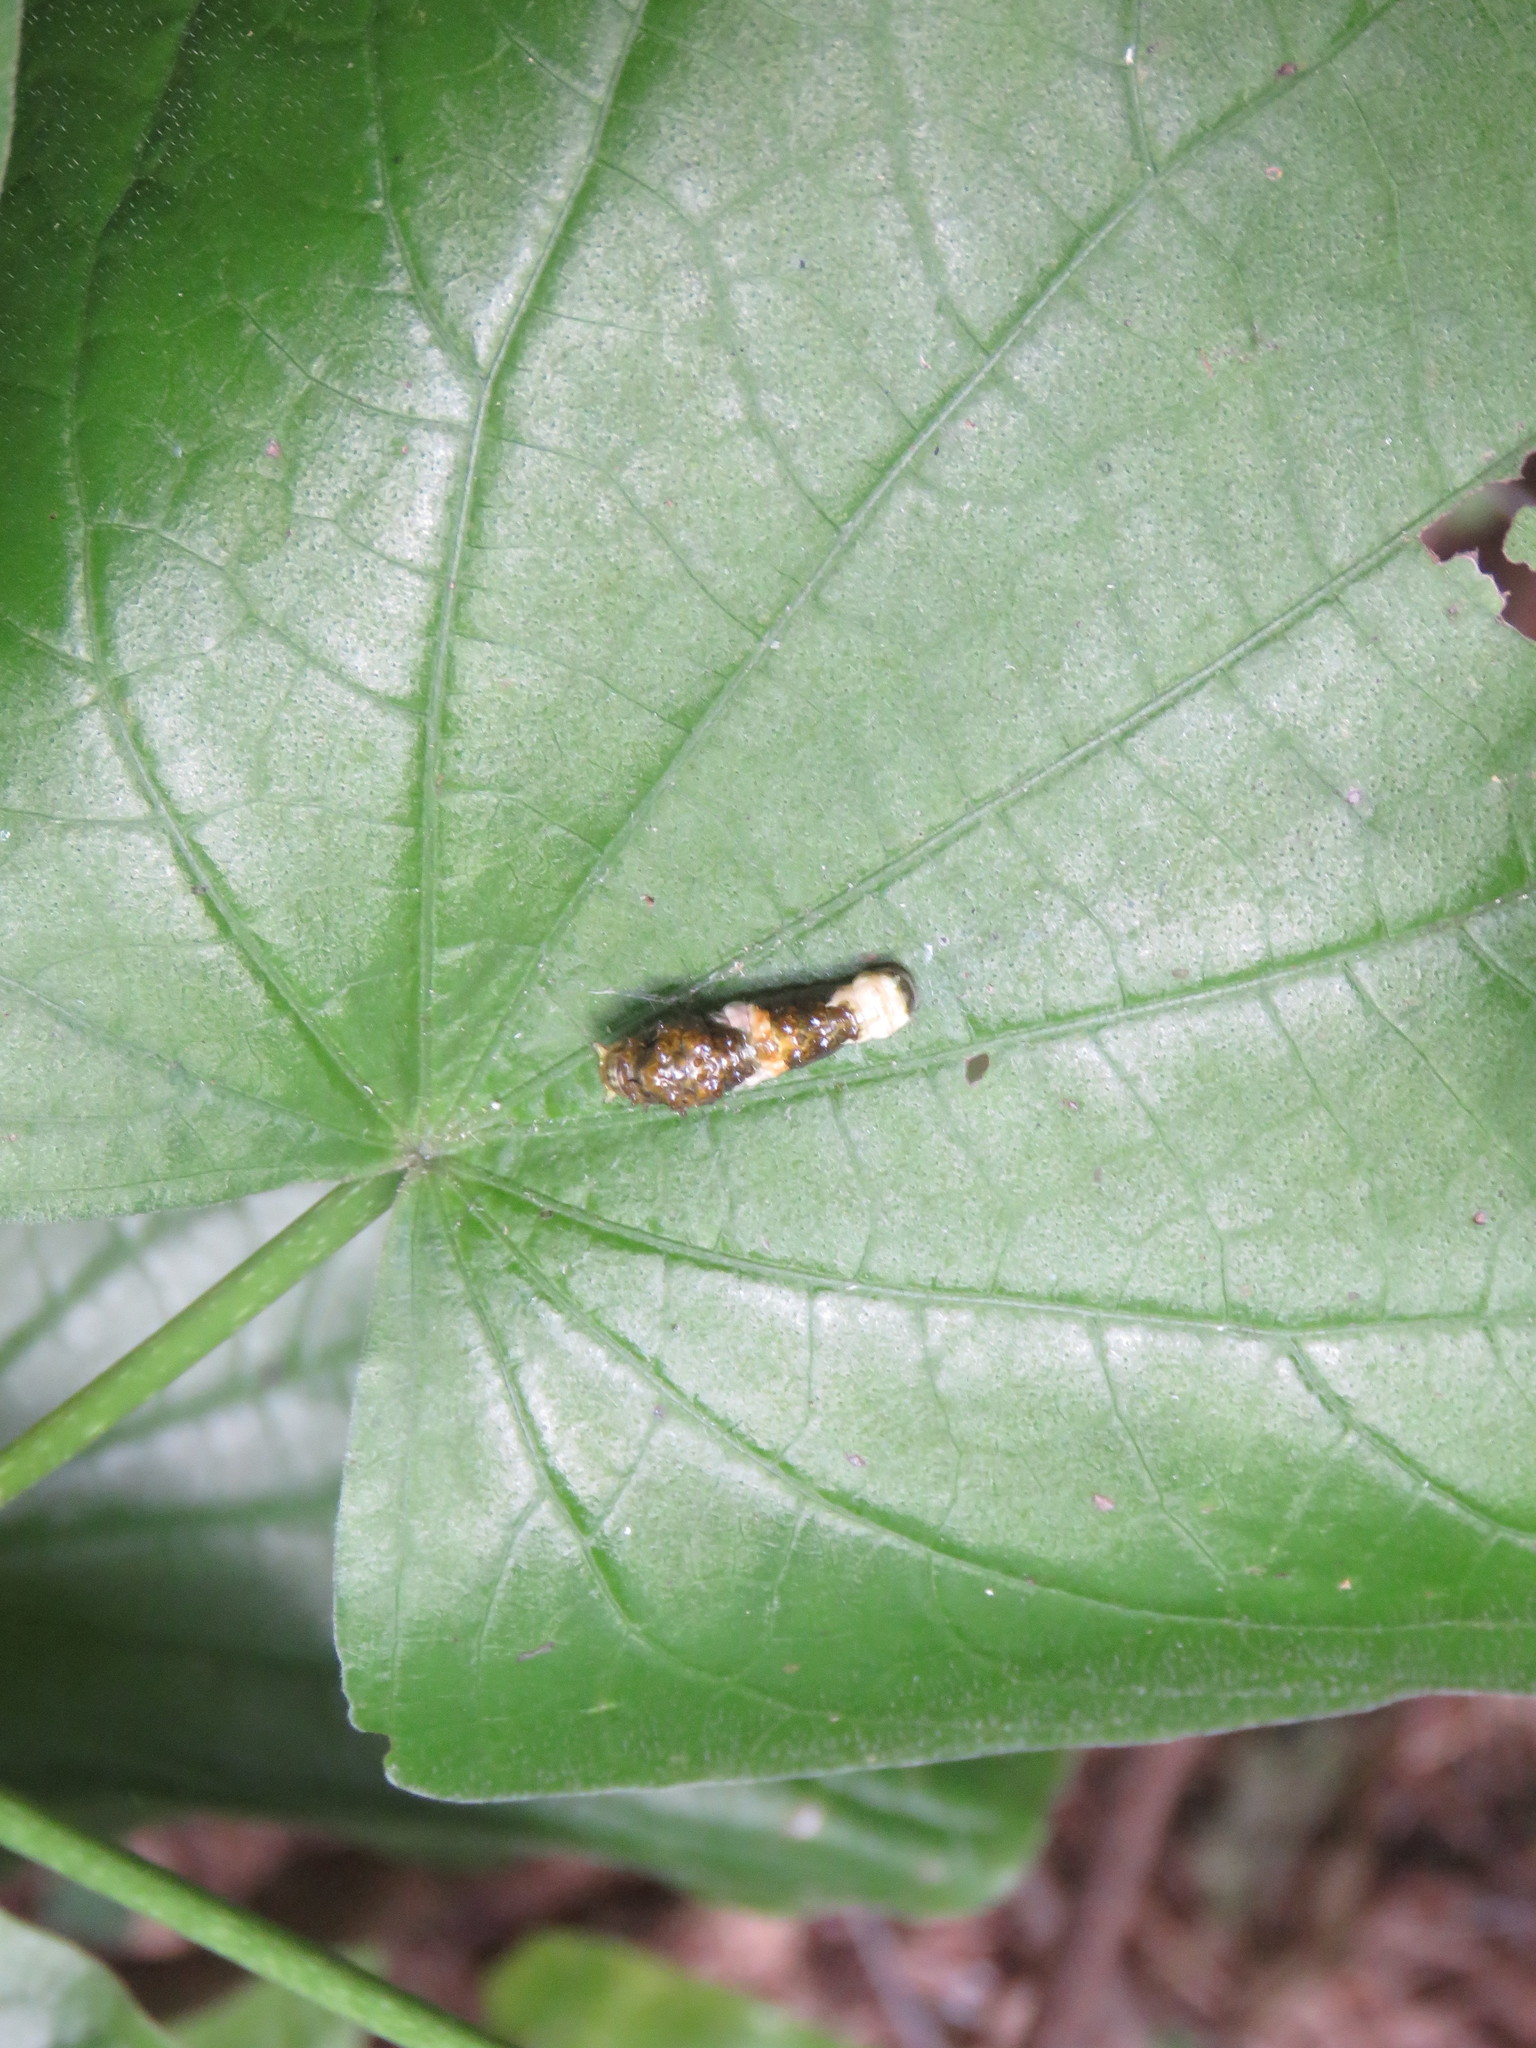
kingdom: Animalia
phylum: Arthropoda
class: Insecta
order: Lepidoptera
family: Papilionidae
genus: Papilio
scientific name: Papilio thoas
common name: King swallowtail
